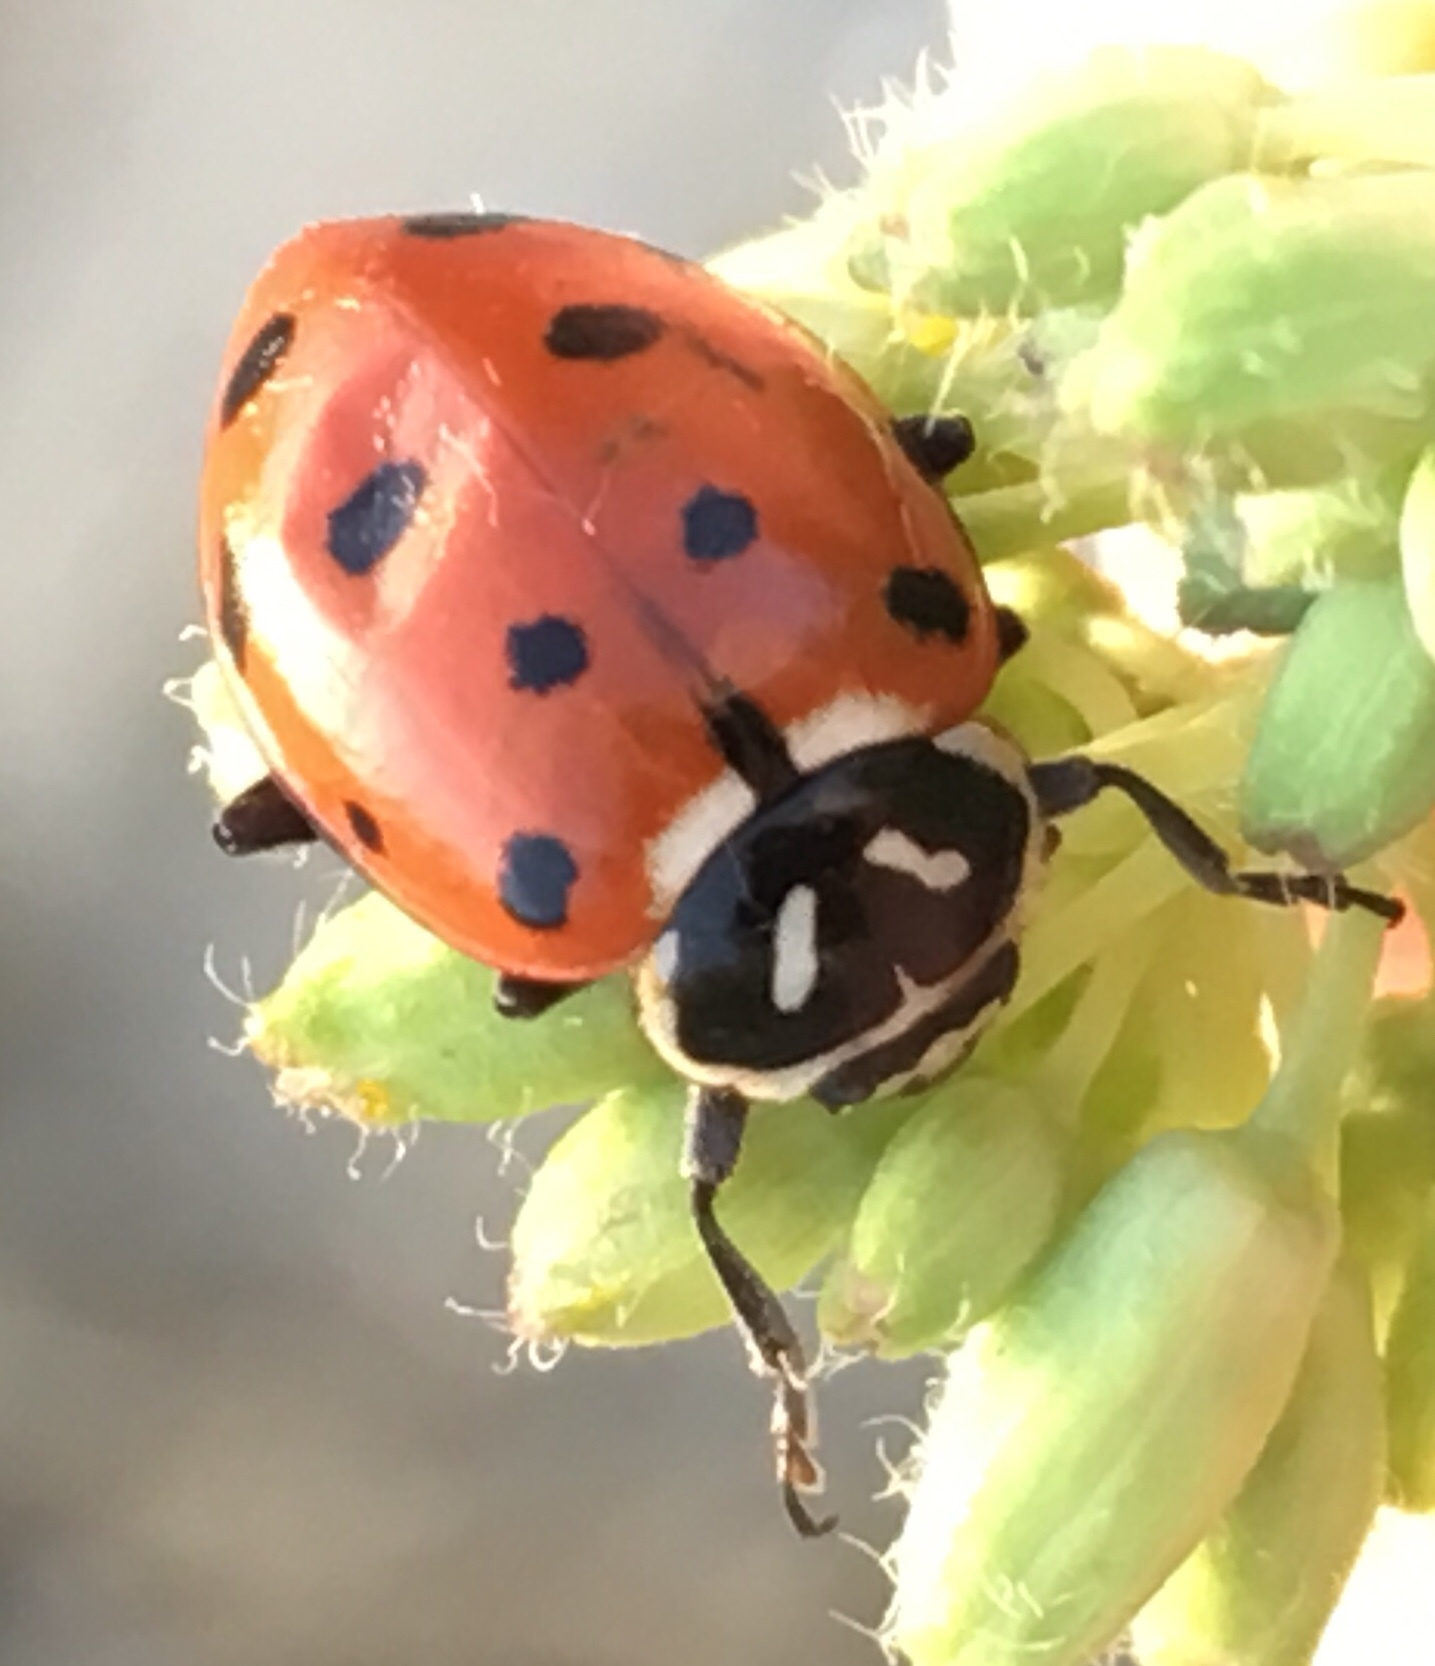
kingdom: Animalia
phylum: Arthropoda
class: Insecta
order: Coleoptera
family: Coccinellidae
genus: Hippodamia
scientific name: Hippodamia convergens
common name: Convergent lady beetle
